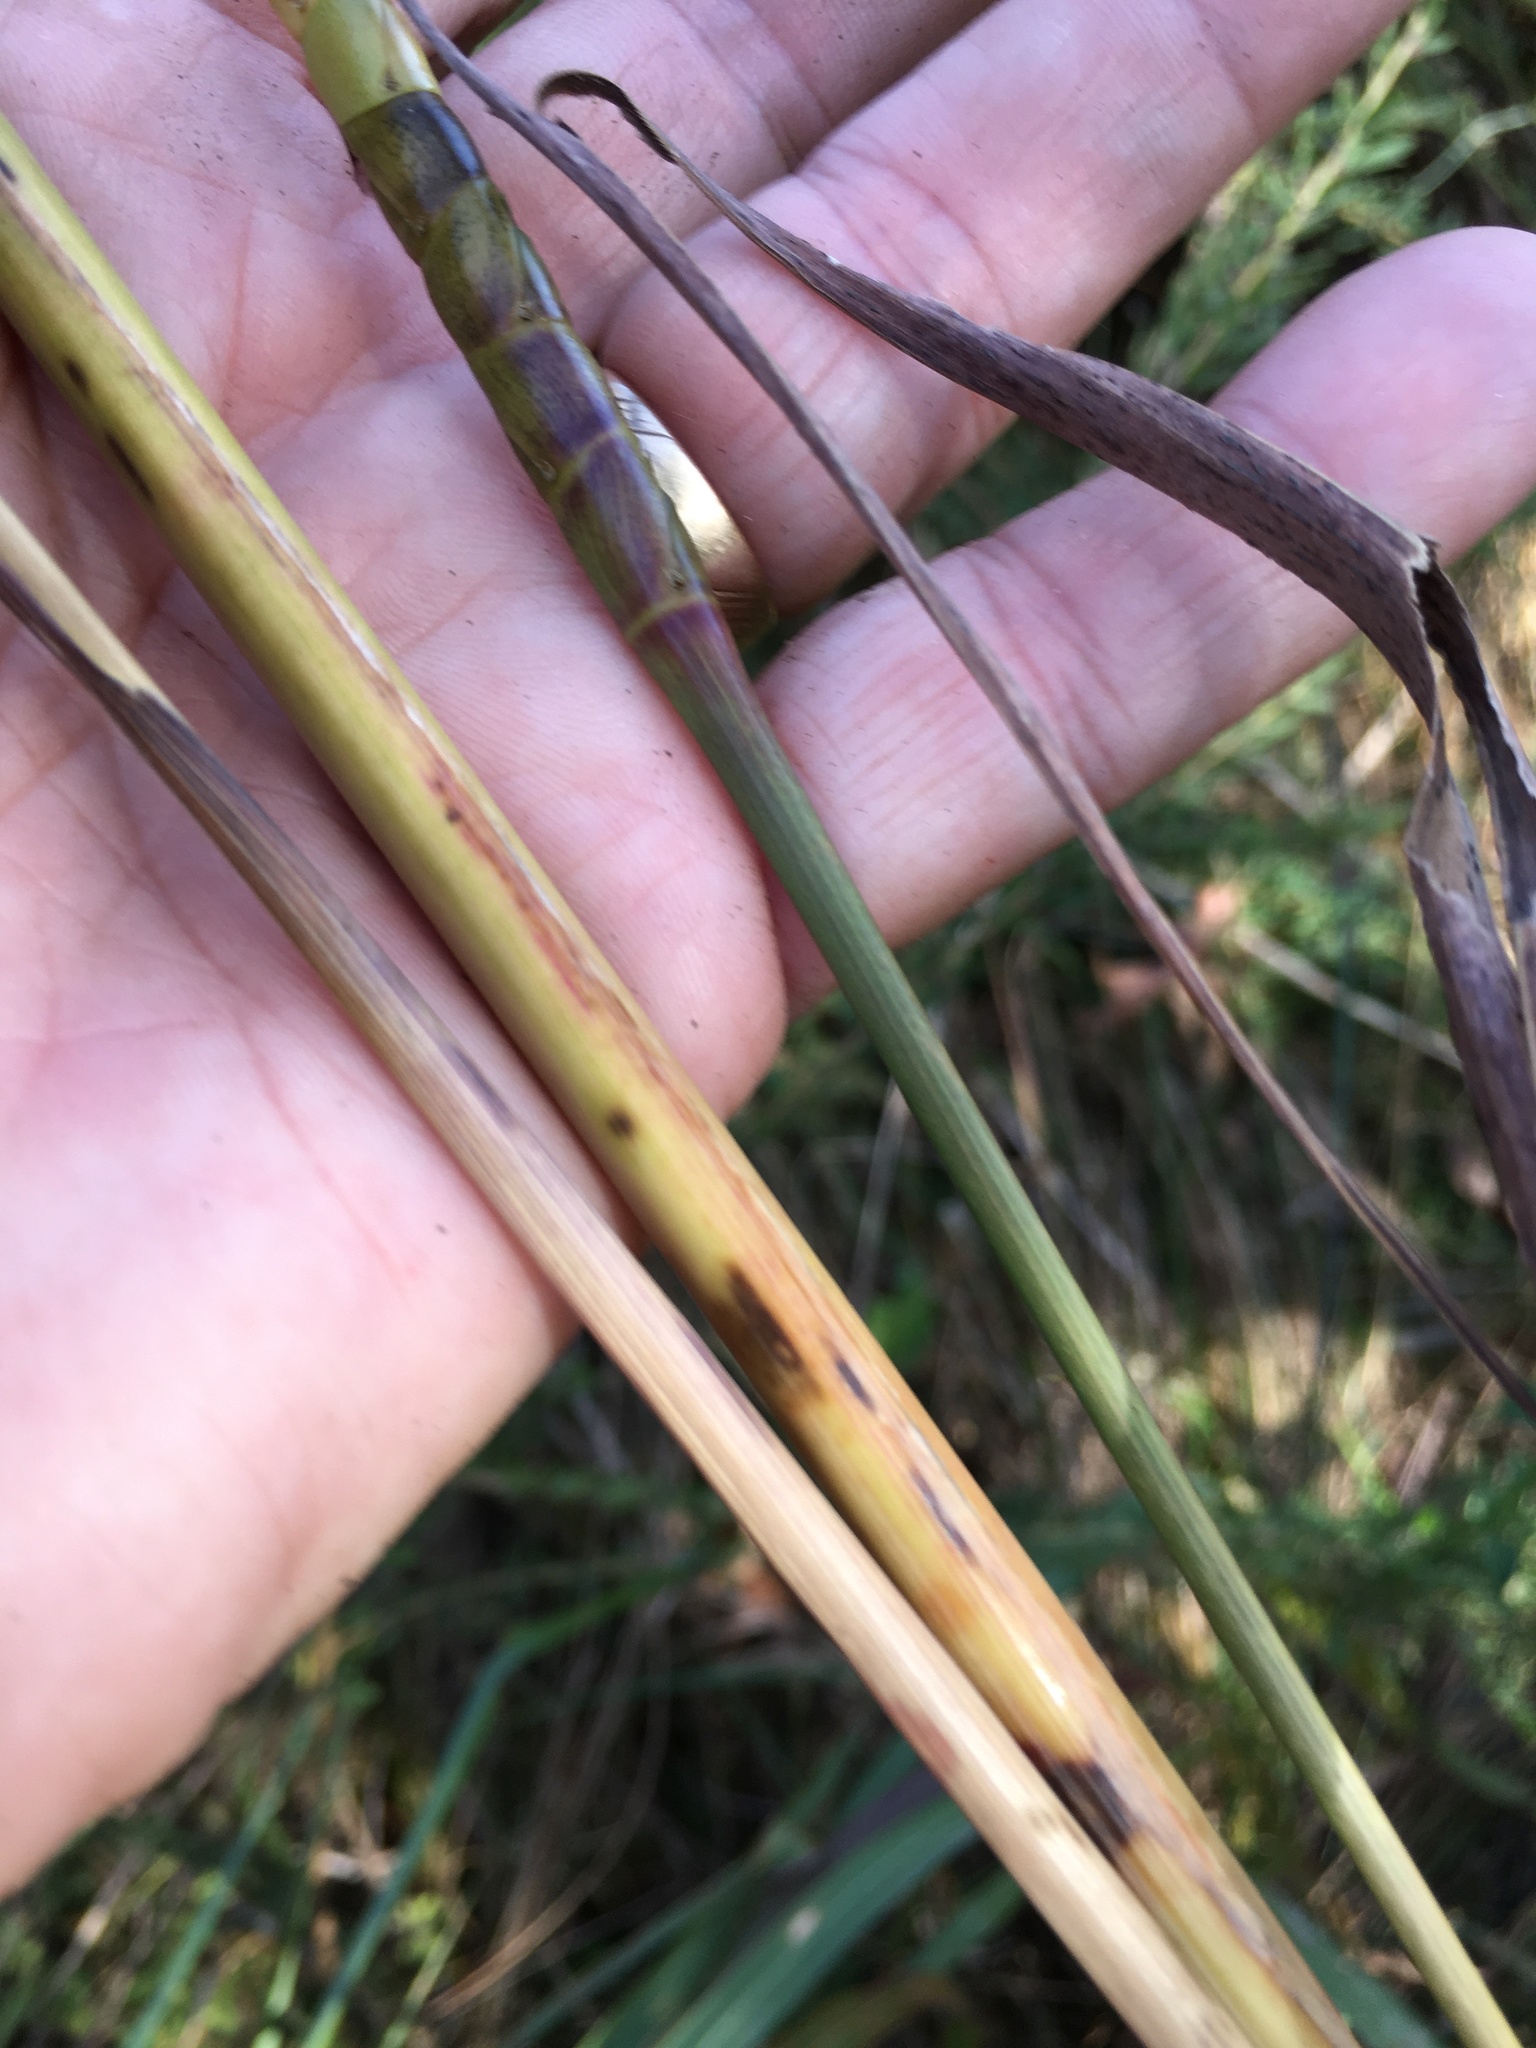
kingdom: Plantae
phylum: Tracheophyta
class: Liliopsida
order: Poales
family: Poaceae
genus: Tripsacum
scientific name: Tripsacum dactyloides
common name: Buffalo-grass
